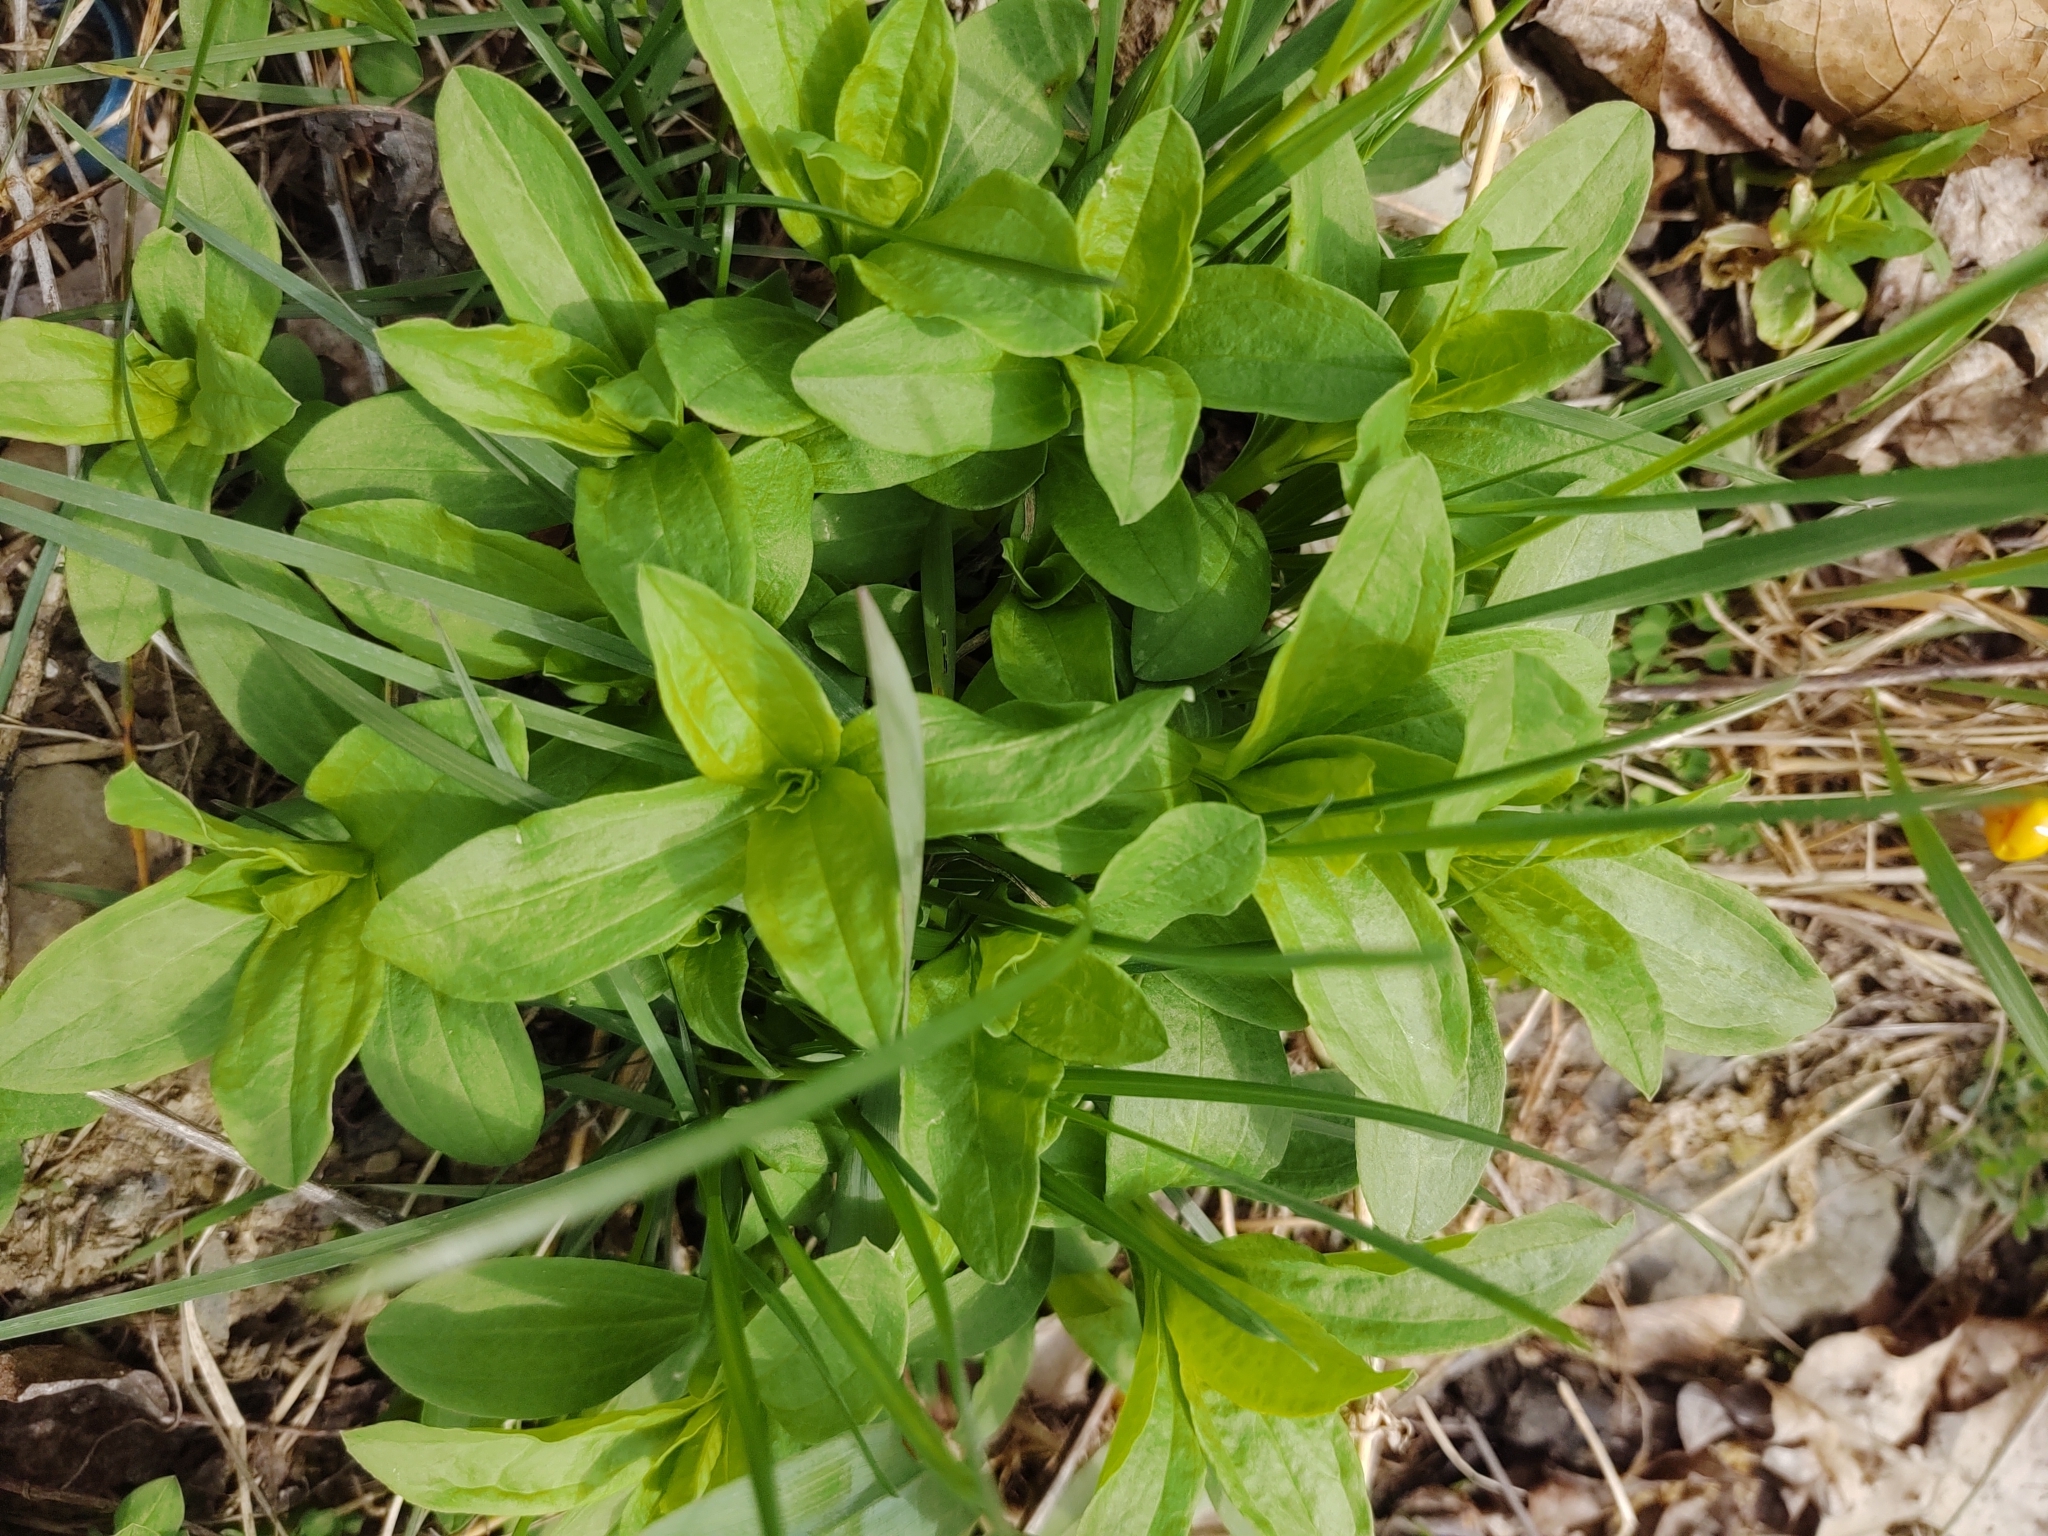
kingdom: Plantae
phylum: Tracheophyta
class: Magnoliopsida
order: Caryophyllales
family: Caryophyllaceae
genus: Saponaria
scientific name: Saponaria officinalis
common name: Soapwort
